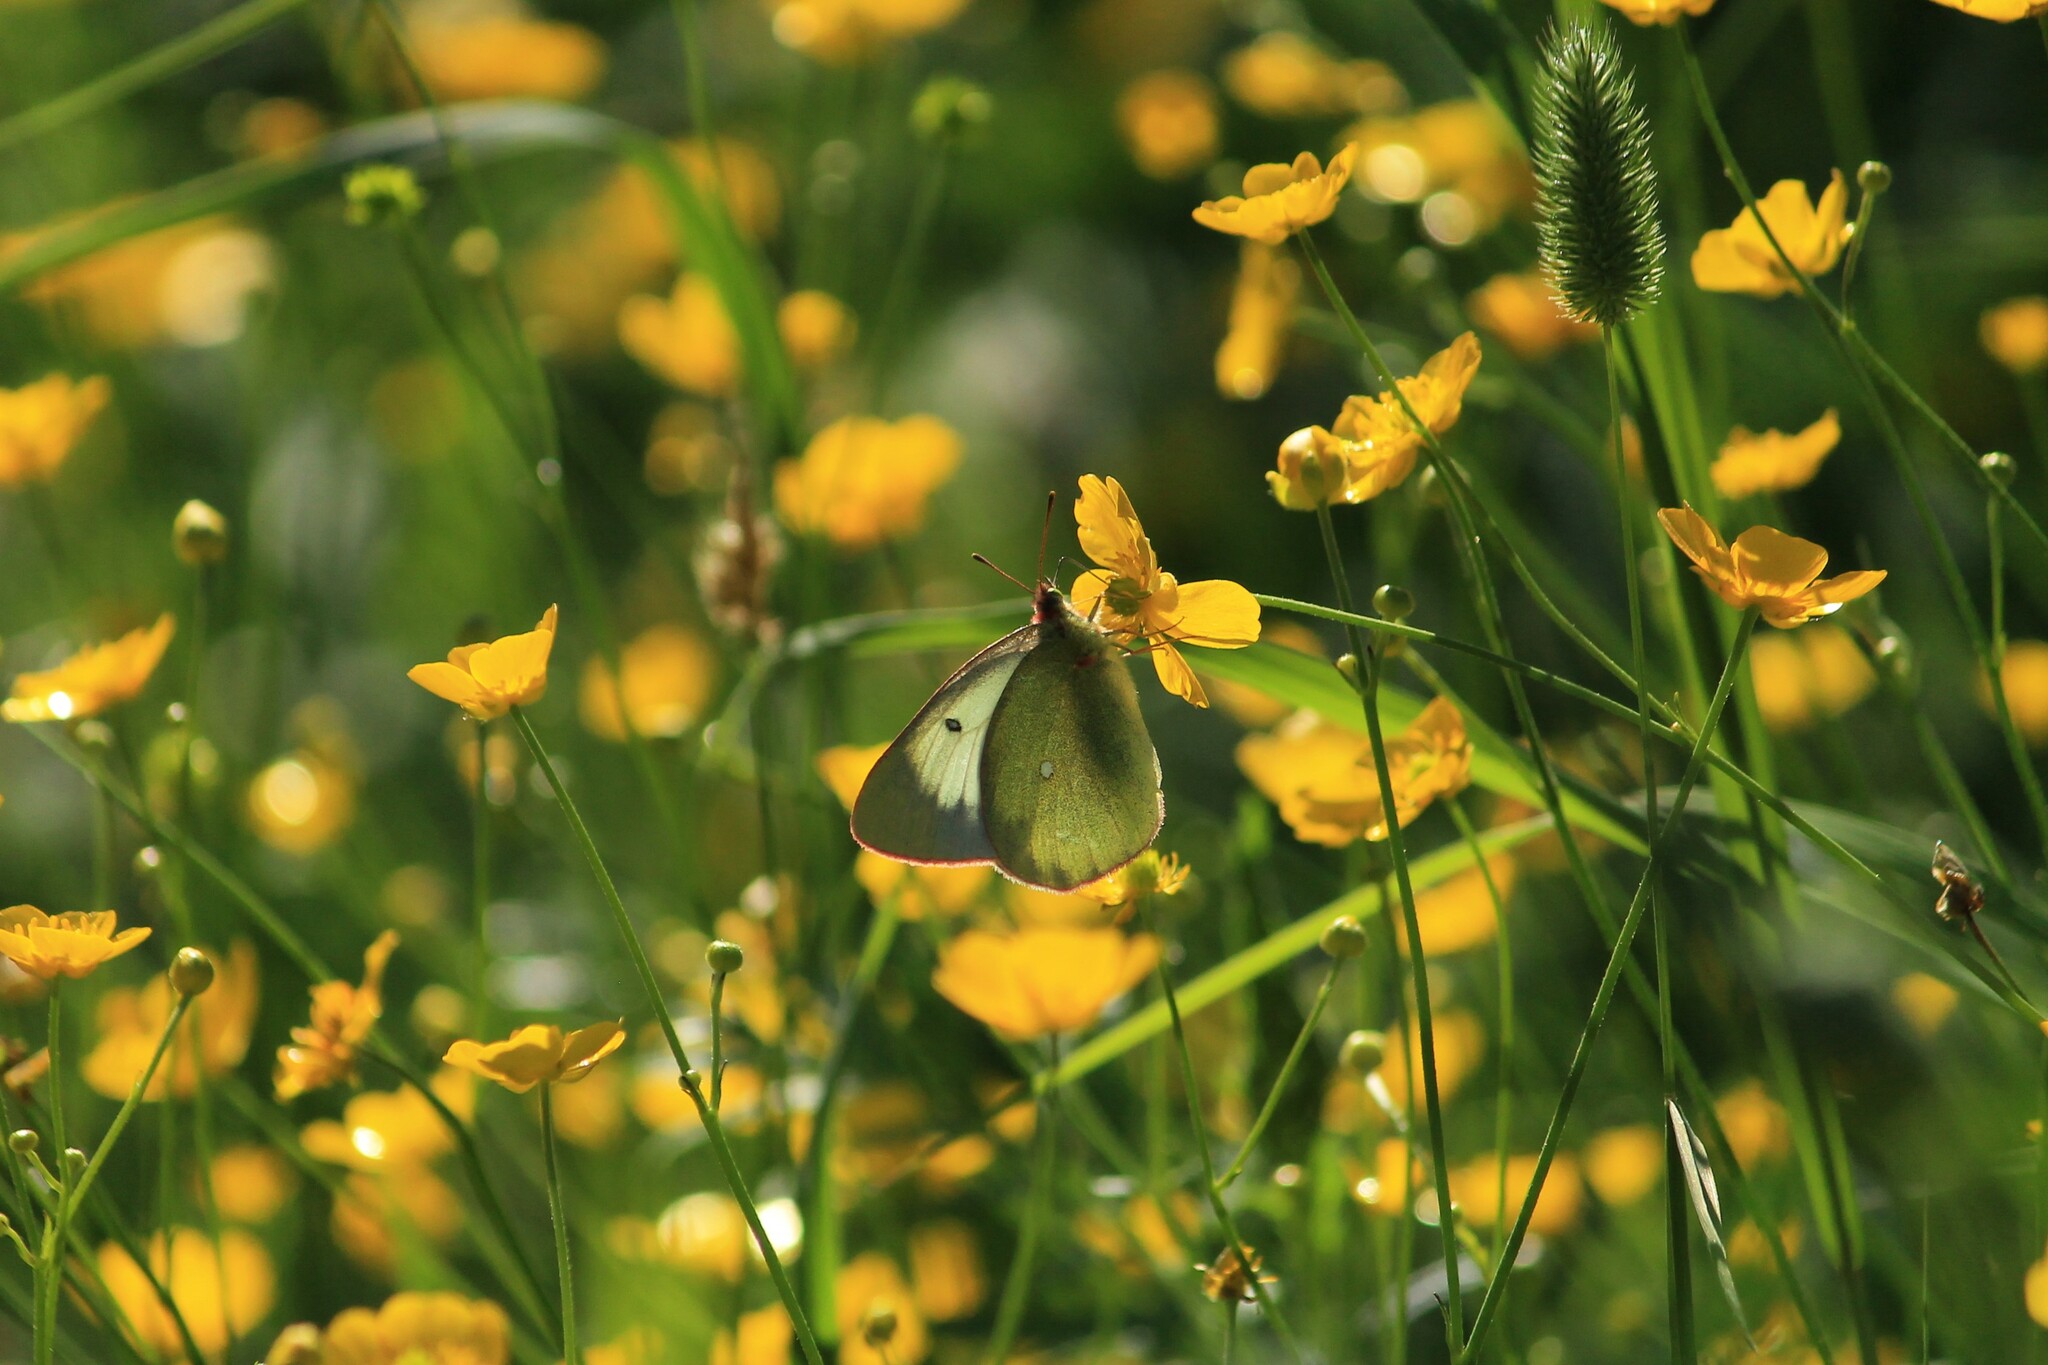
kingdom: Animalia
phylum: Arthropoda
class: Insecta
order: Lepidoptera
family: Pieridae
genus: Colias
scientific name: Colias palaeno
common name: Moorland clouded yellow
